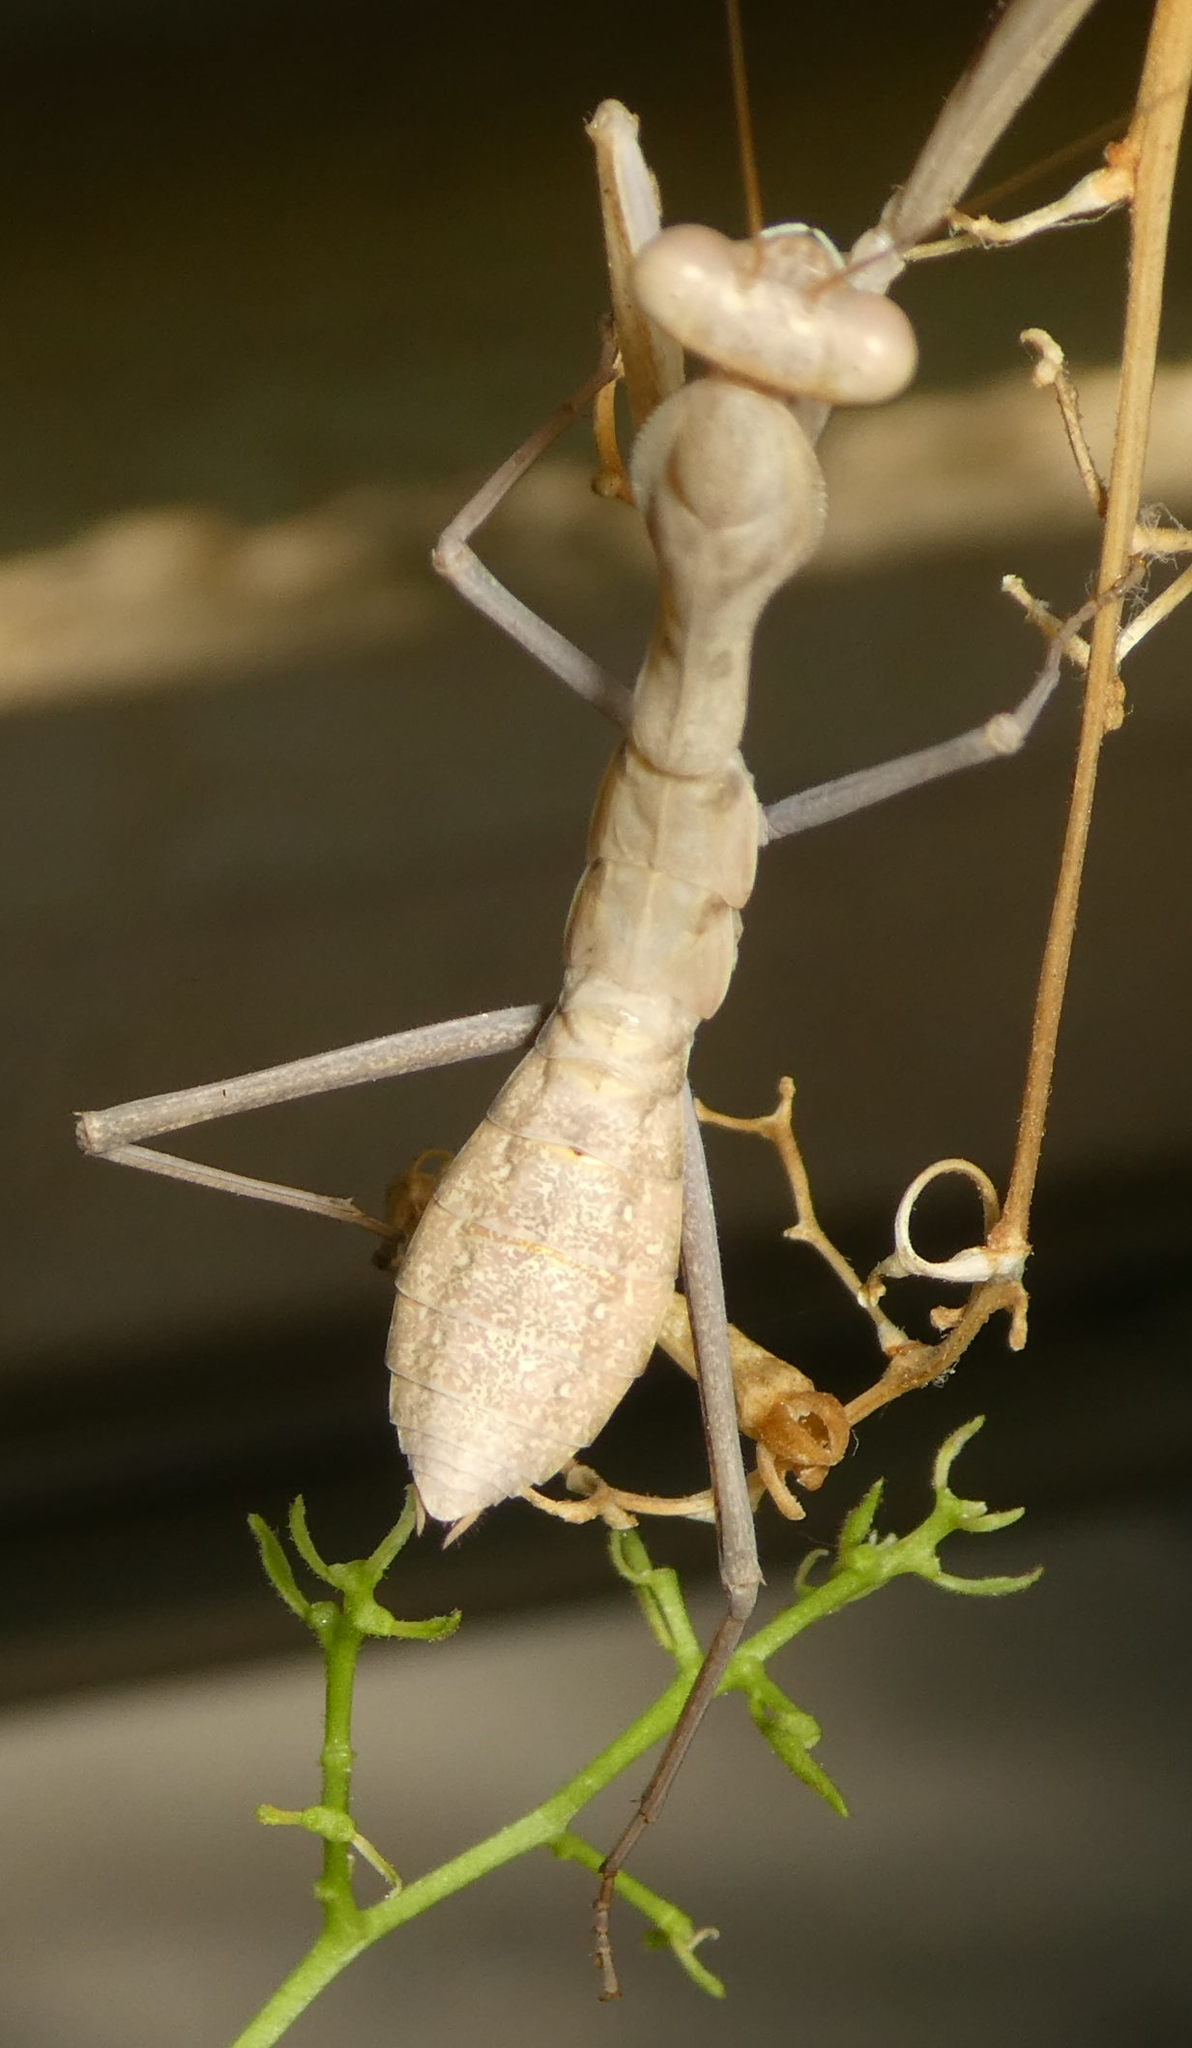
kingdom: Animalia
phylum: Arthropoda
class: Insecta
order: Mantodea
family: Mantidae
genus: Sphodromantis
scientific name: Sphodromantis viridis
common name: Giant african mantis
